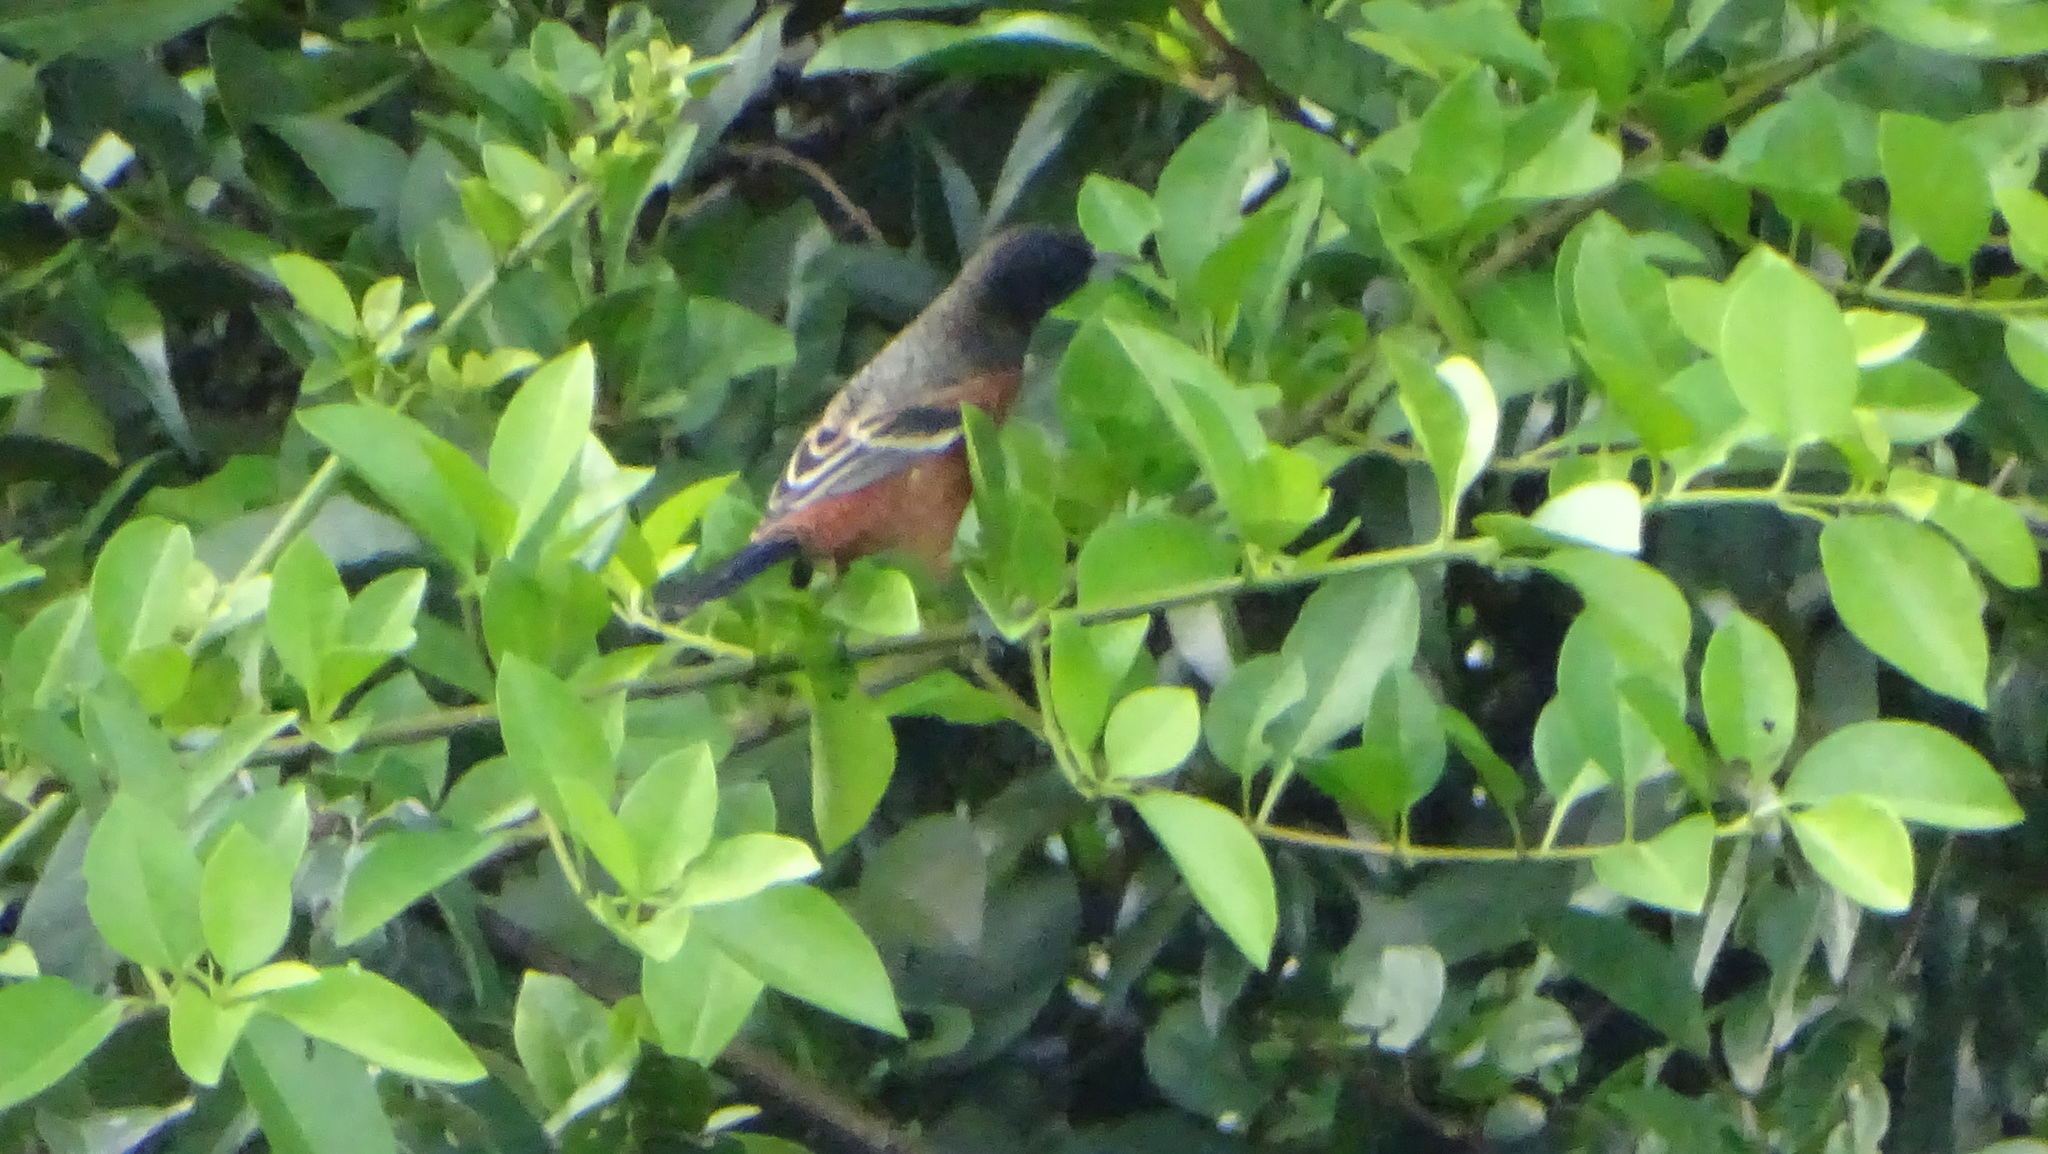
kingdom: Animalia
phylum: Chordata
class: Aves
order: Passeriformes
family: Icteridae
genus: Icterus
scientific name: Icterus spurius
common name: Orchard oriole
